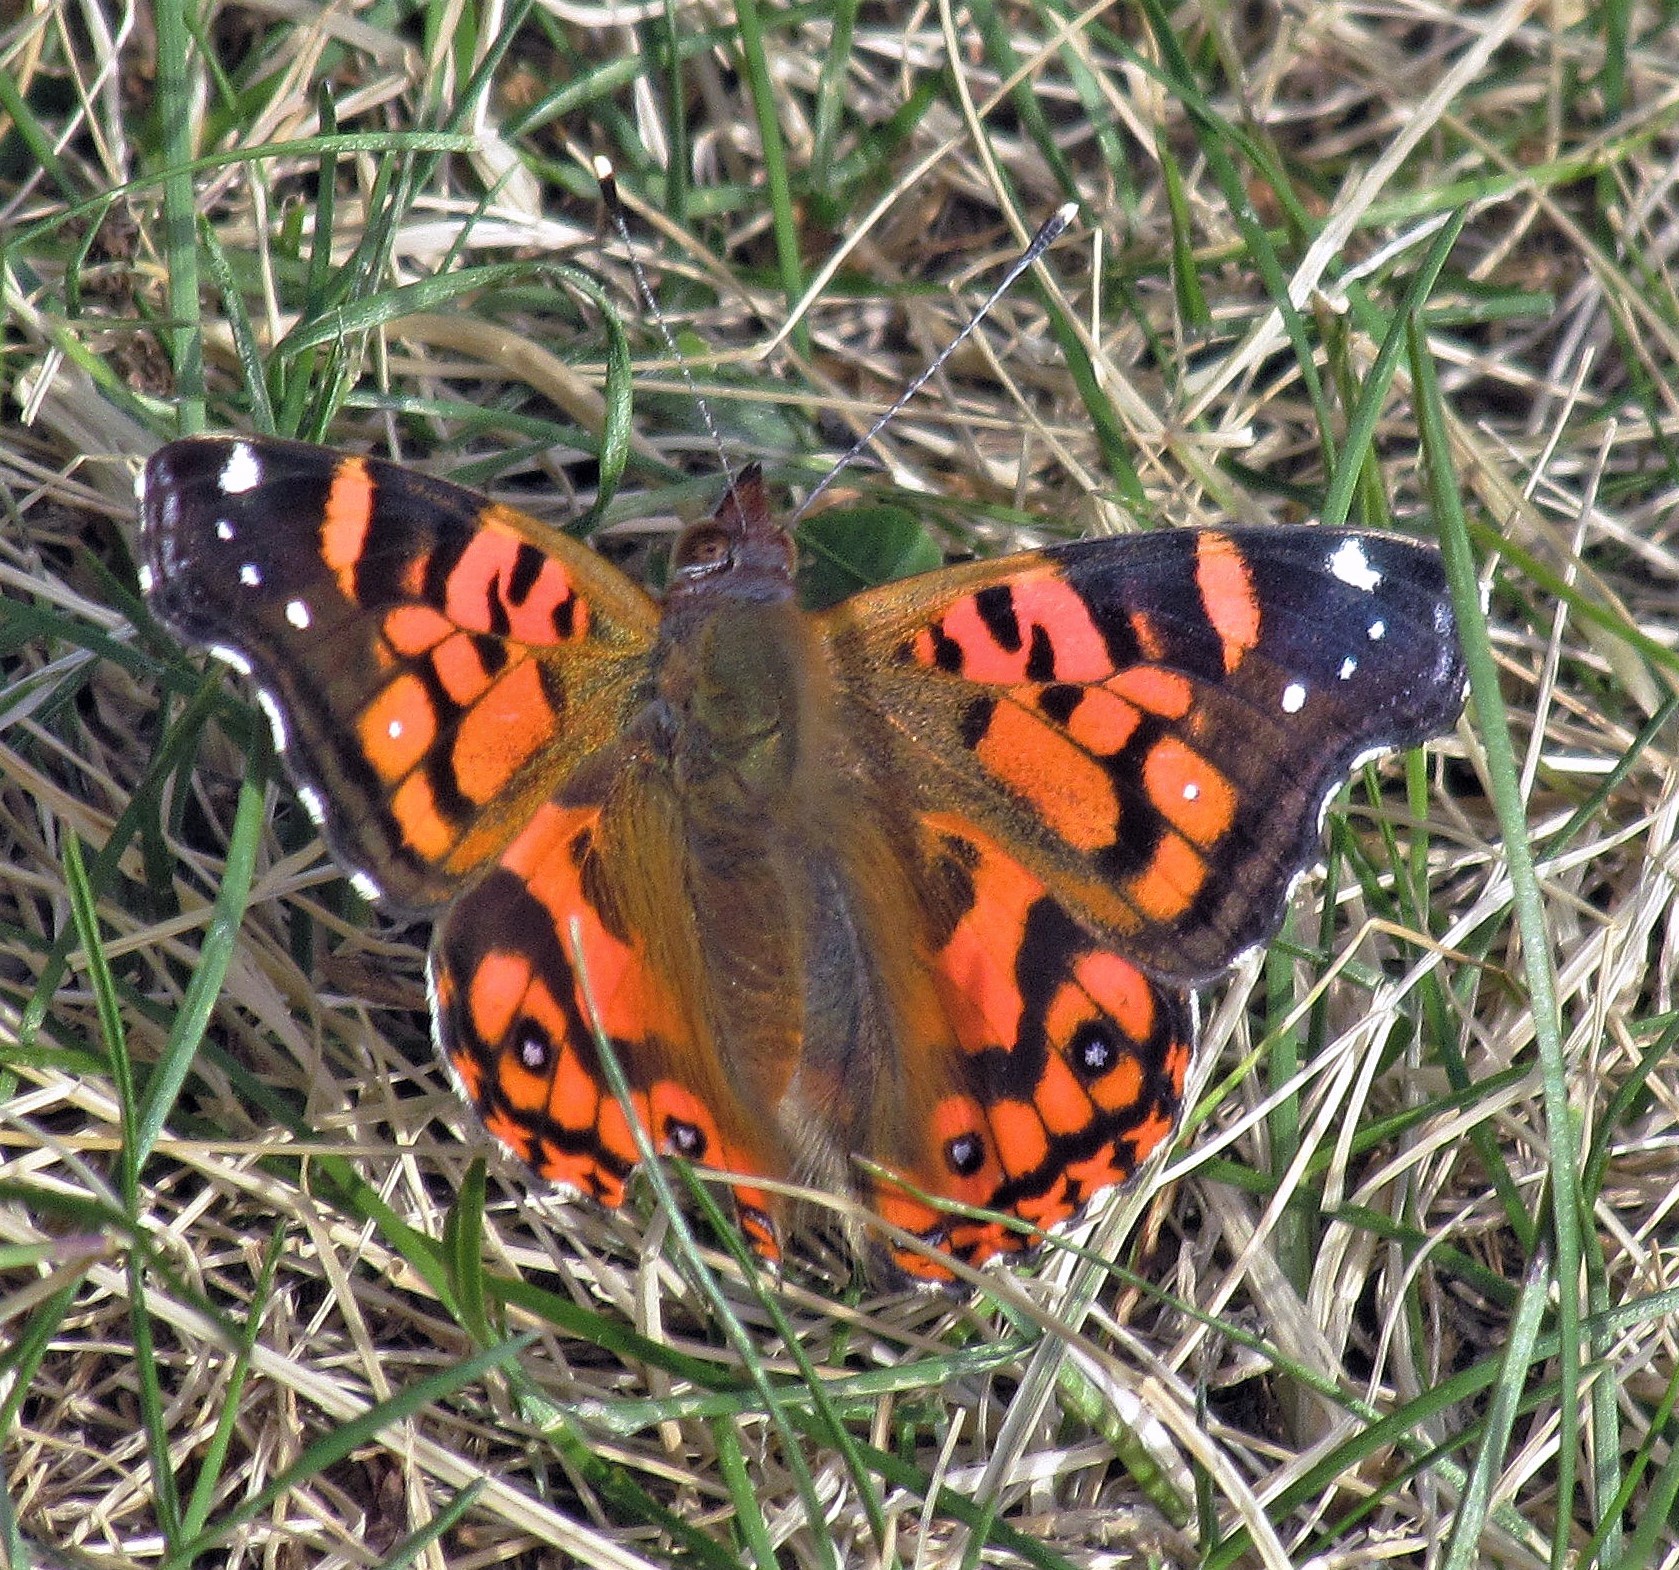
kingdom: Animalia
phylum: Arthropoda
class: Insecta
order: Lepidoptera
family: Nymphalidae
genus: Vanessa
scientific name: Vanessa terpsichore
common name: Chilean lady
